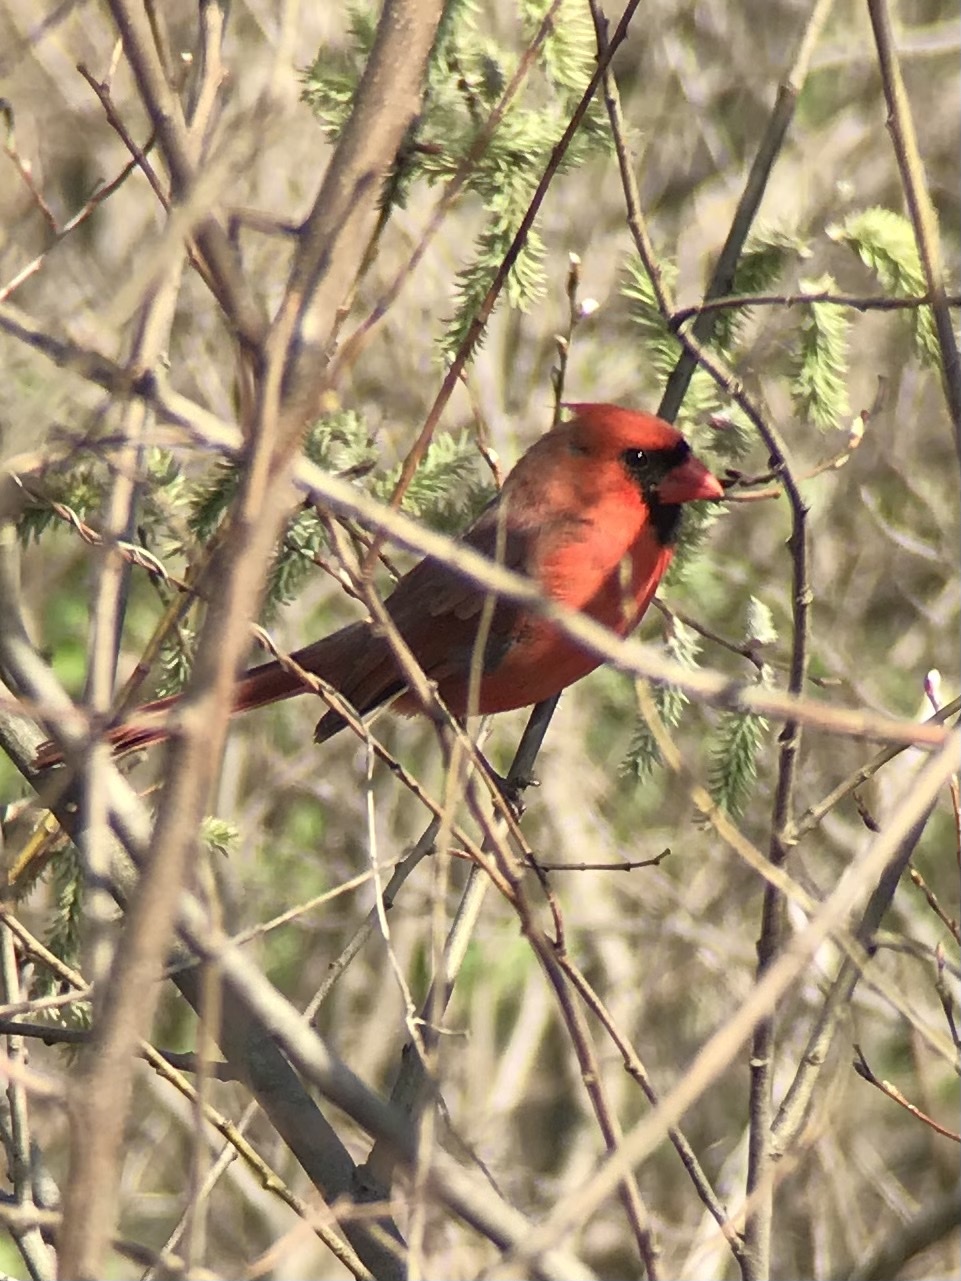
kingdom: Animalia
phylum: Chordata
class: Aves
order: Passeriformes
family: Cardinalidae
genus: Cardinalis
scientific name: Cardinalis cardinalis
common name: Northern cardinal
